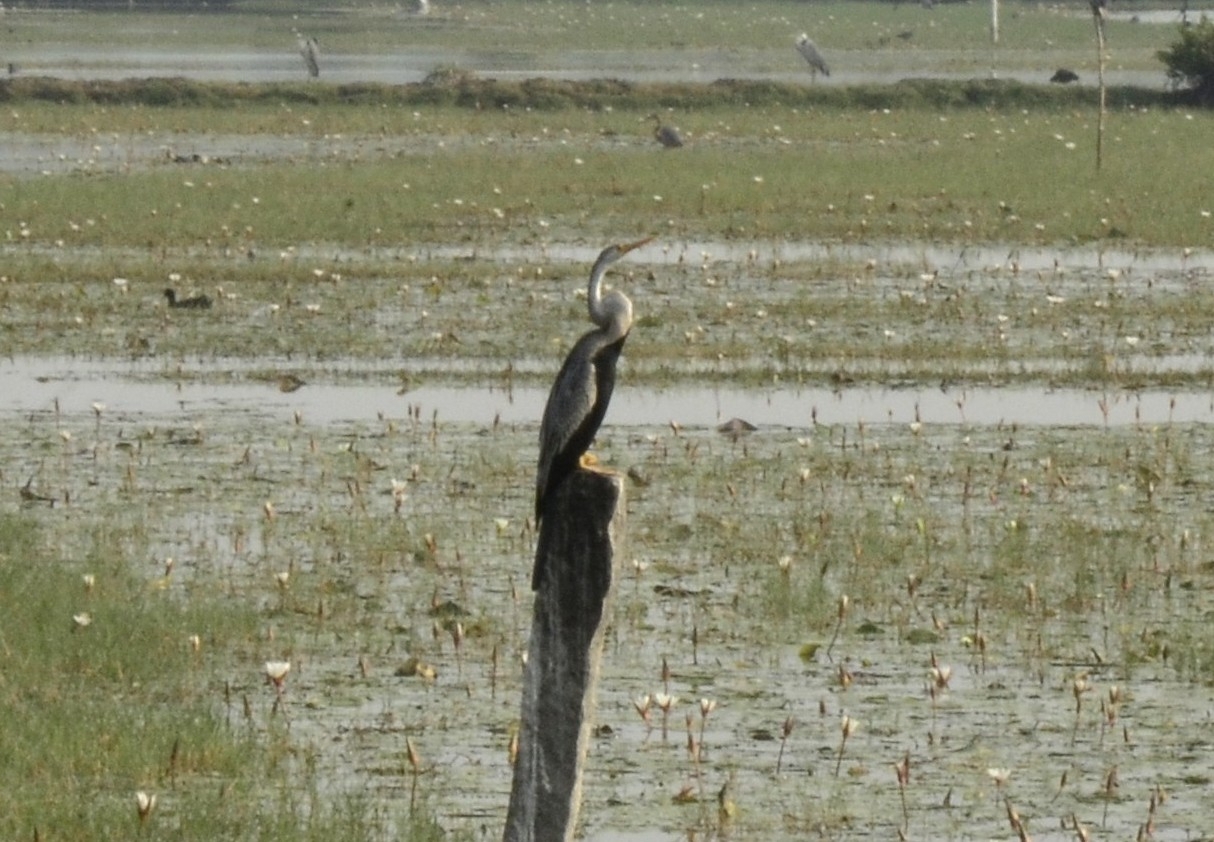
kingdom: Animalia
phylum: Chordata
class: Aves
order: Suliformes
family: Anhingidae
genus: Anhinga
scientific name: Anhinga melanogaster
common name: Oriental darter
